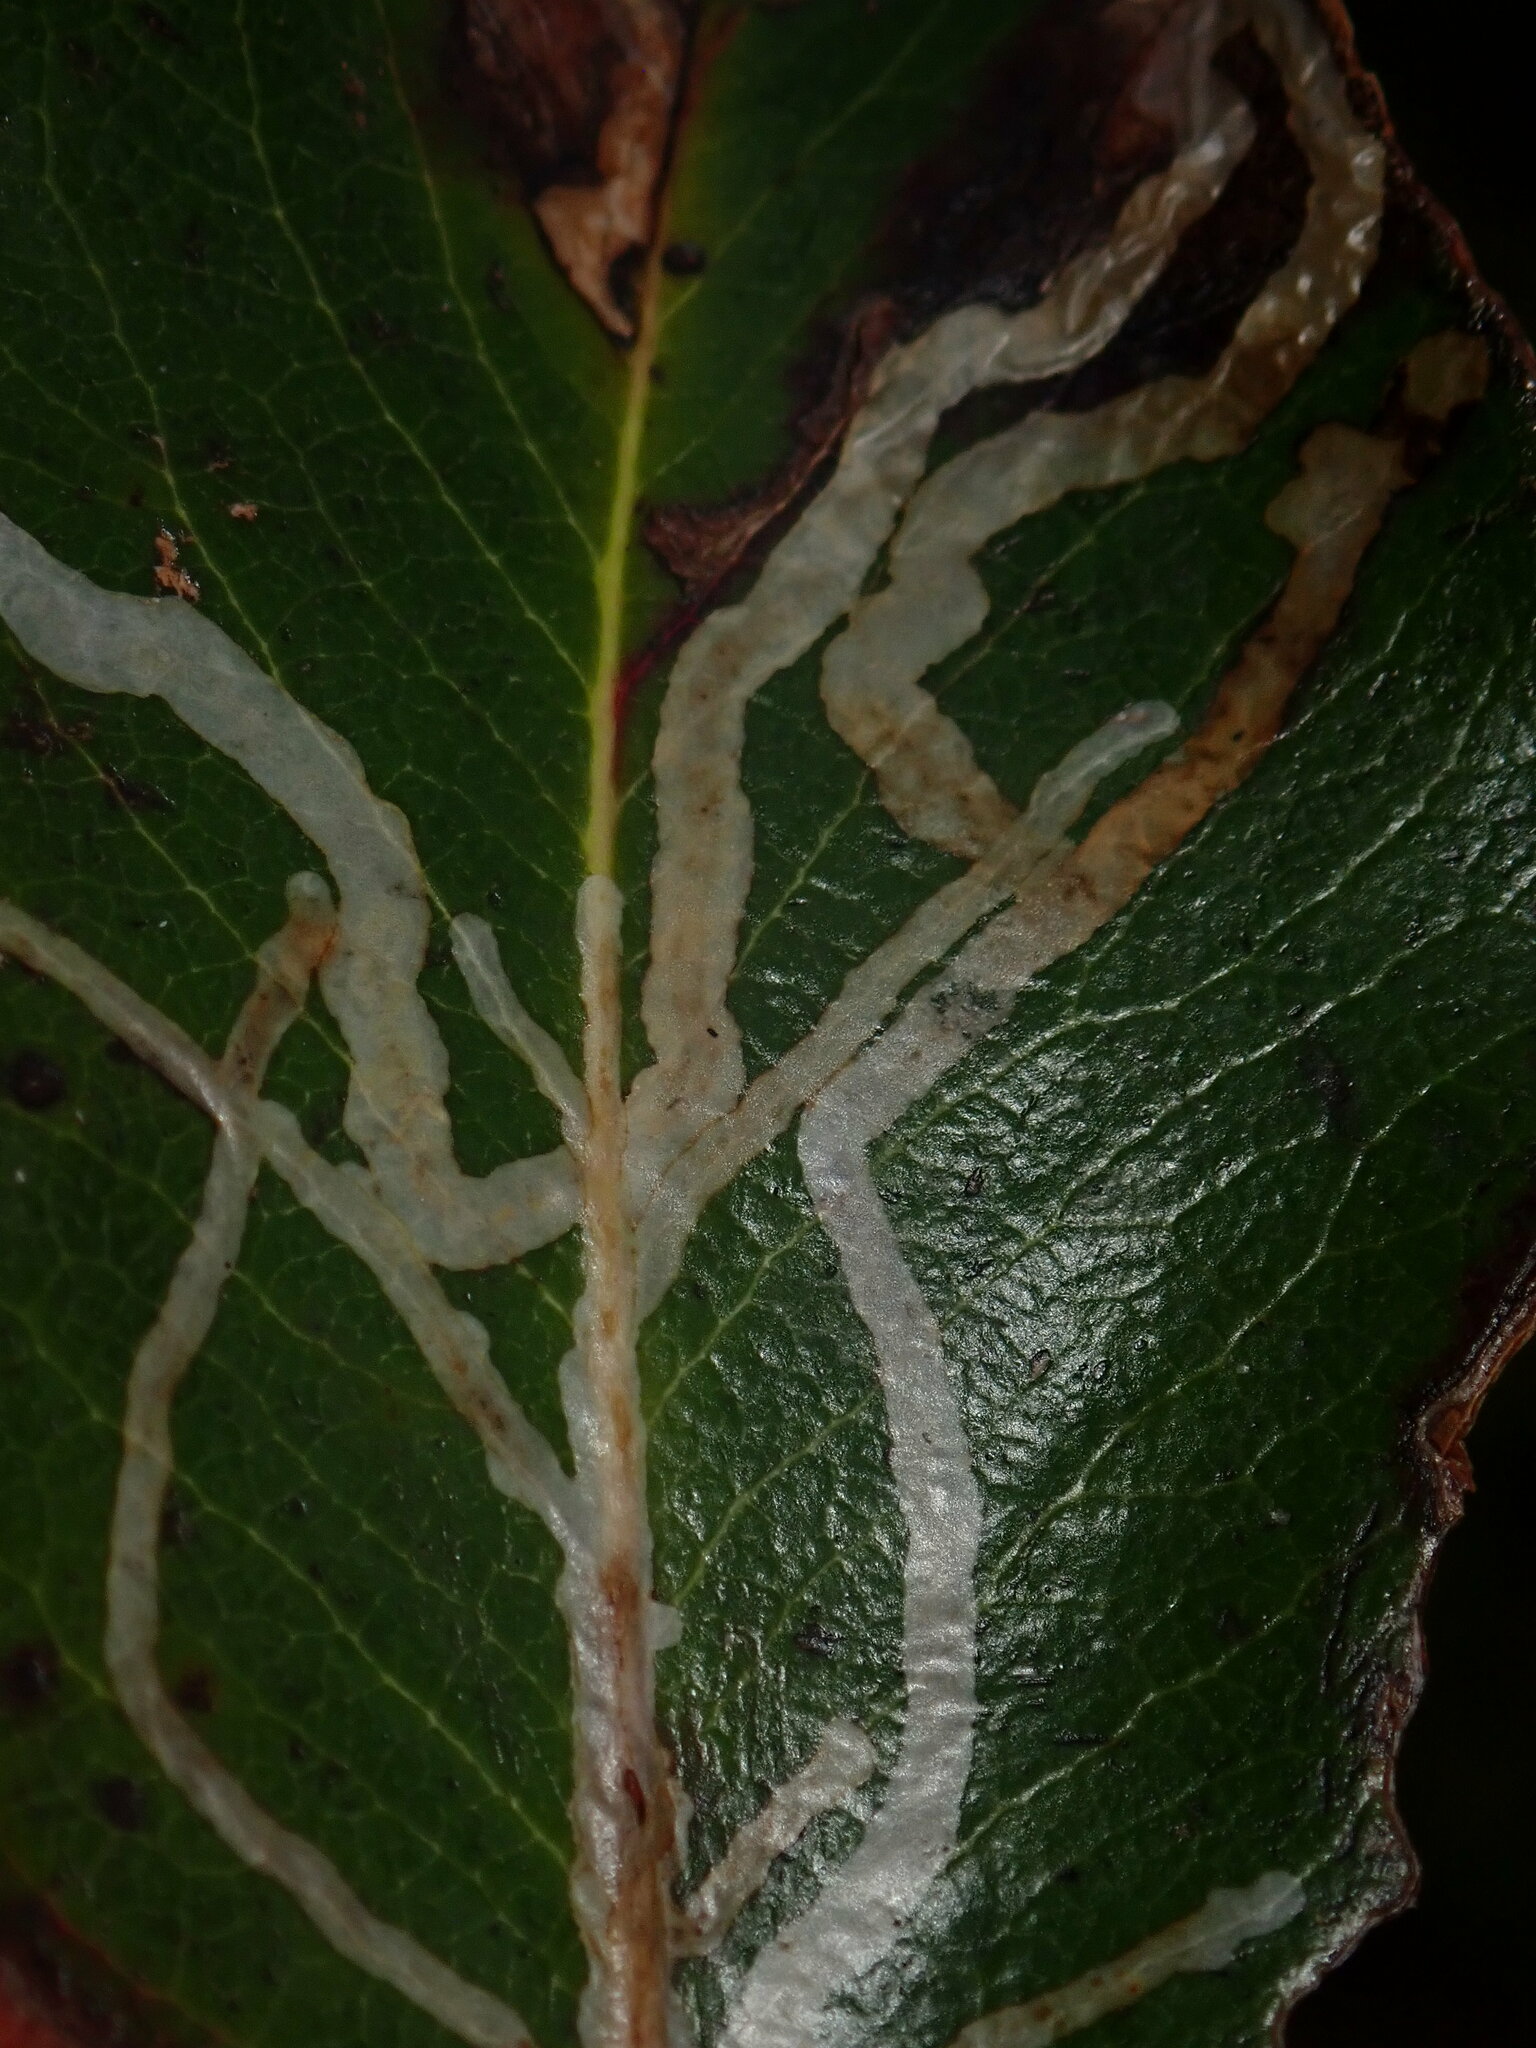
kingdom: Animalia
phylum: Arthropoda
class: Insecta
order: Lepidoptera
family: Gracillariidae
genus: Marmara
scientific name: Marmara arbutiella
